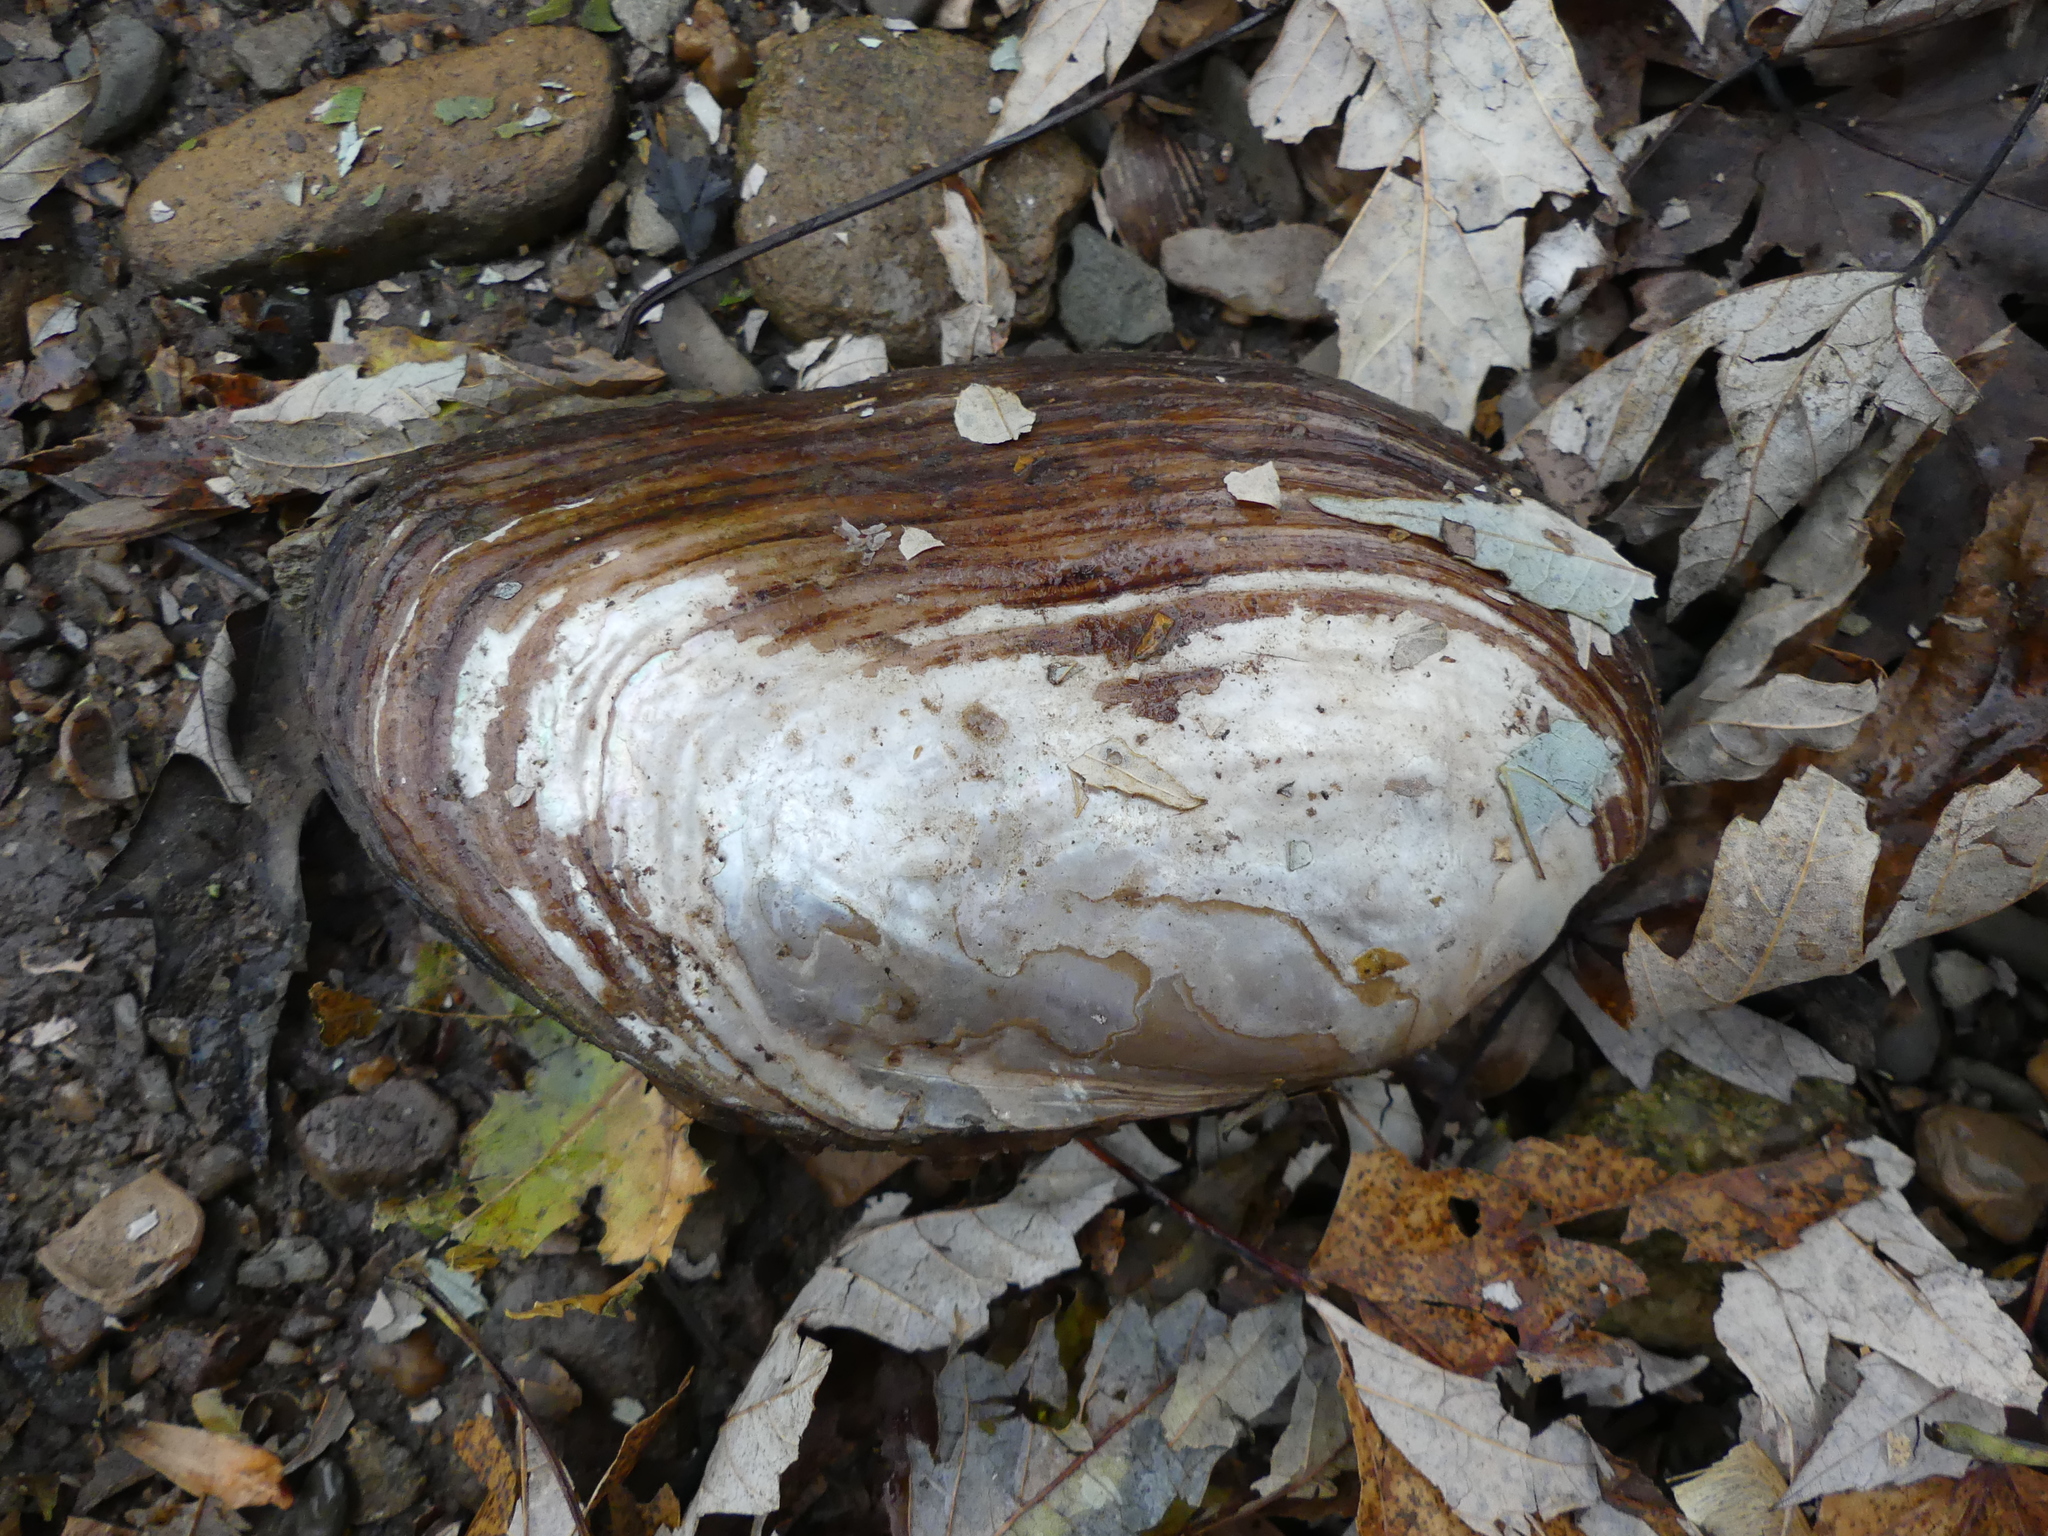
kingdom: Animalia
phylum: Mollusca
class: Bivalvia
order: Unionida
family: Unionidae
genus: Elliptio
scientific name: Elliptio complanata
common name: Eastern elliptio
